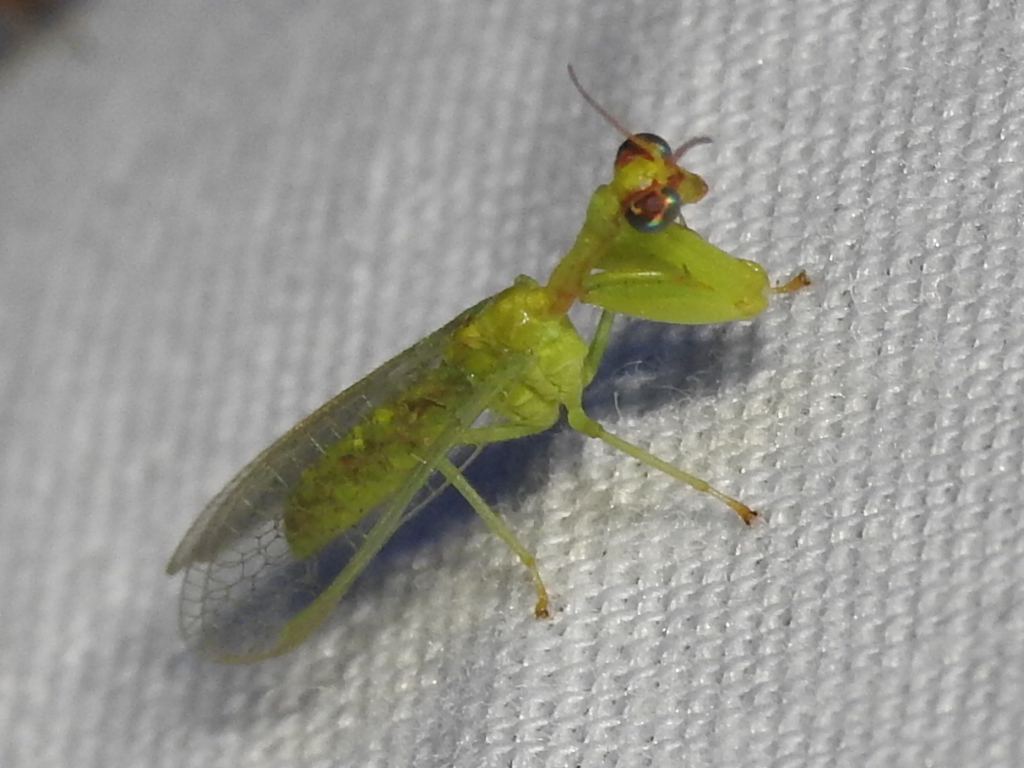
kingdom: Animalia
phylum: Arthropoda
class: Insecta
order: Neuroptera
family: Mantispidae
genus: Zeugomantispa
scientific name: Zeugomantispa minuta
